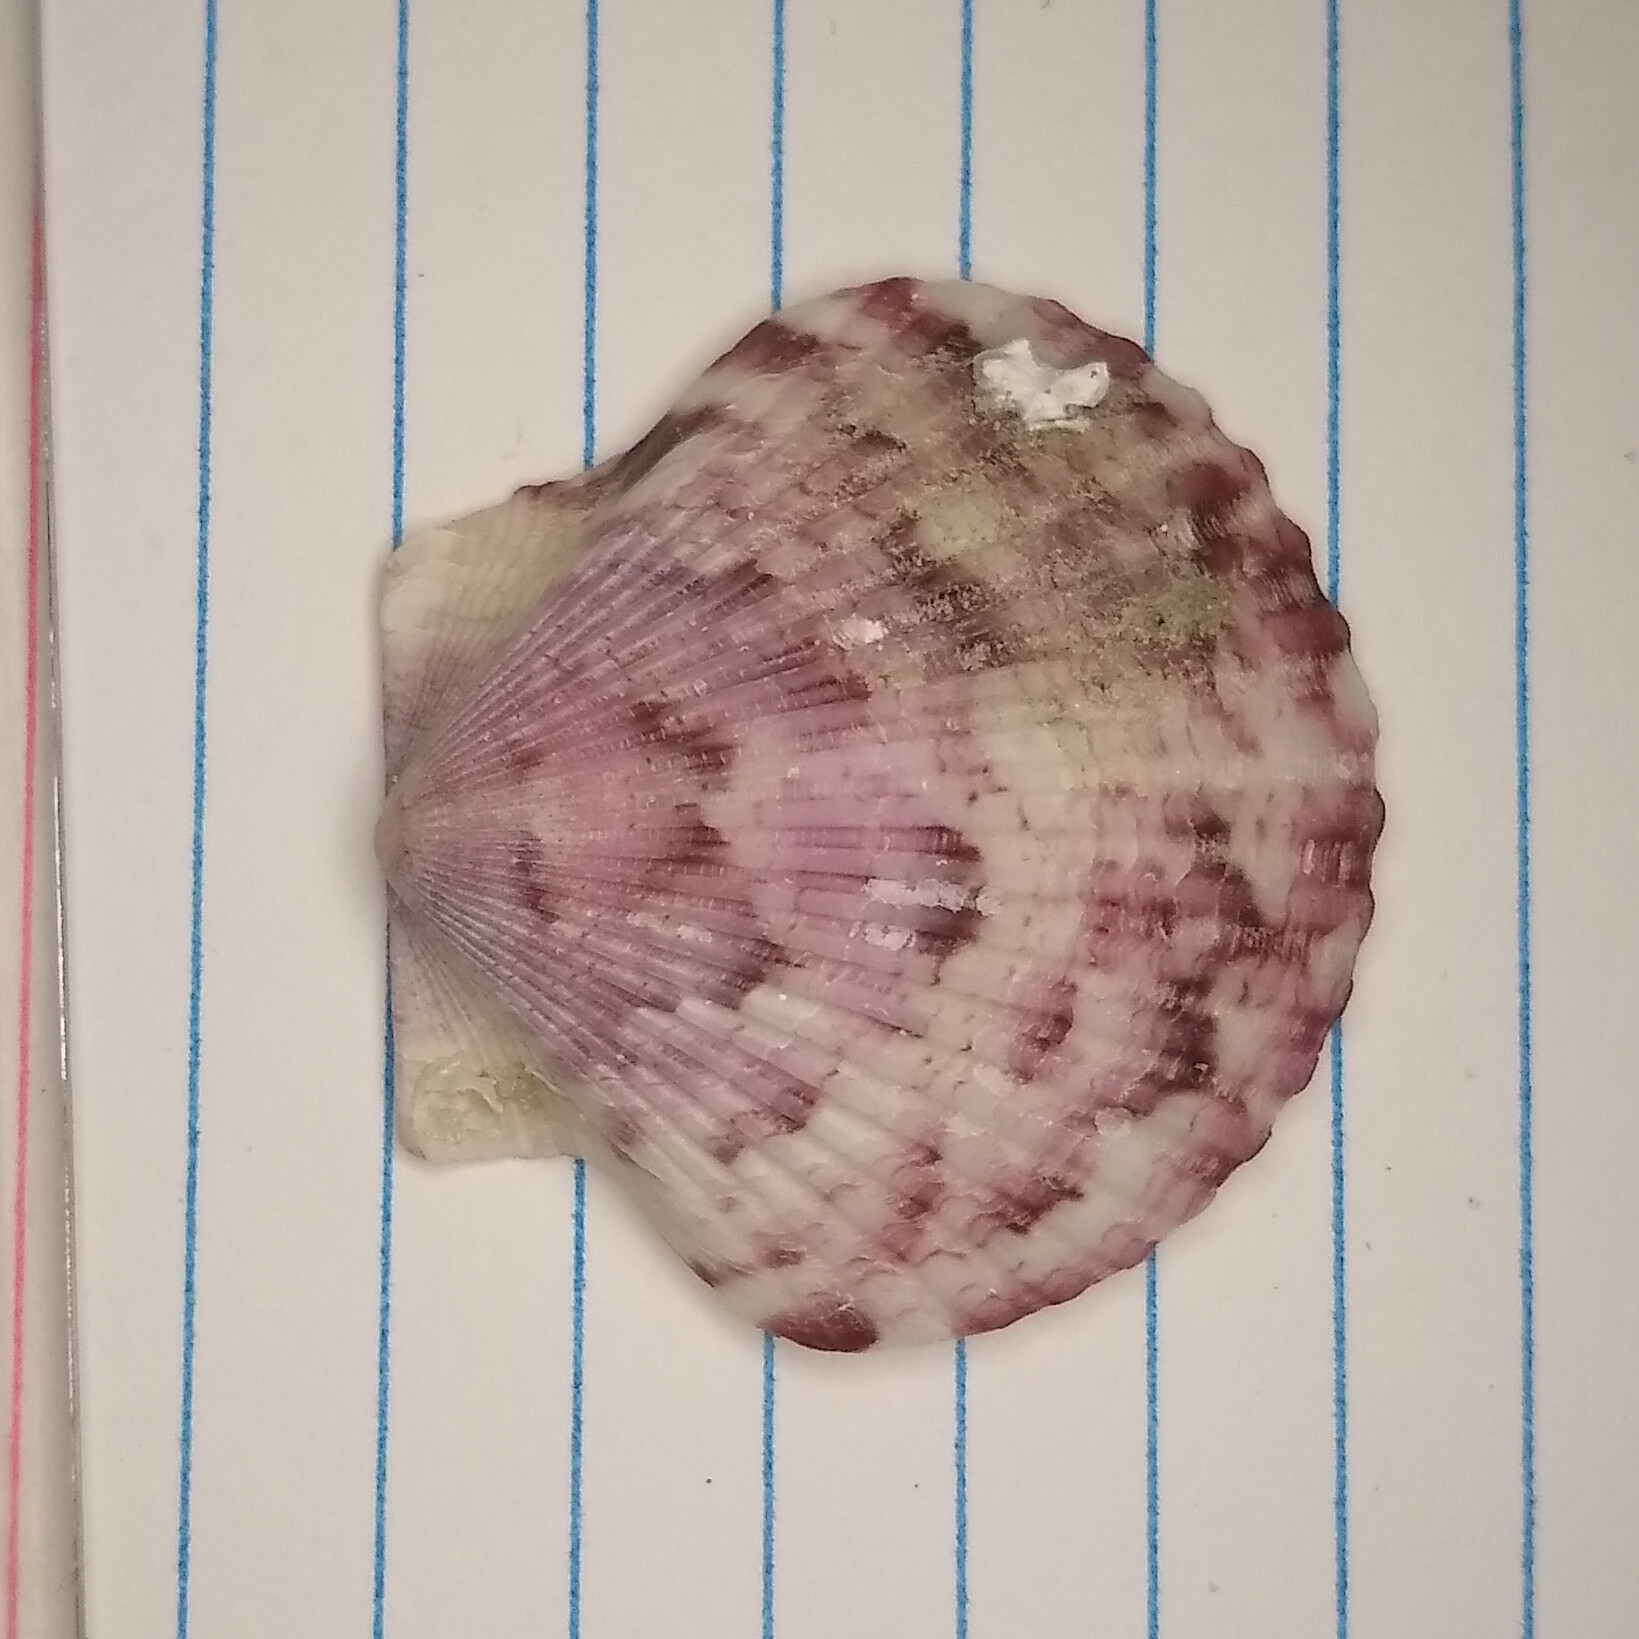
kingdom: Animalia
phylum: Mollusca
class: Bivalvia
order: Pectinida
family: Pectinidae
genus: Argopecten
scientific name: Argopecten gibbus
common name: Atlantic calico scallop
